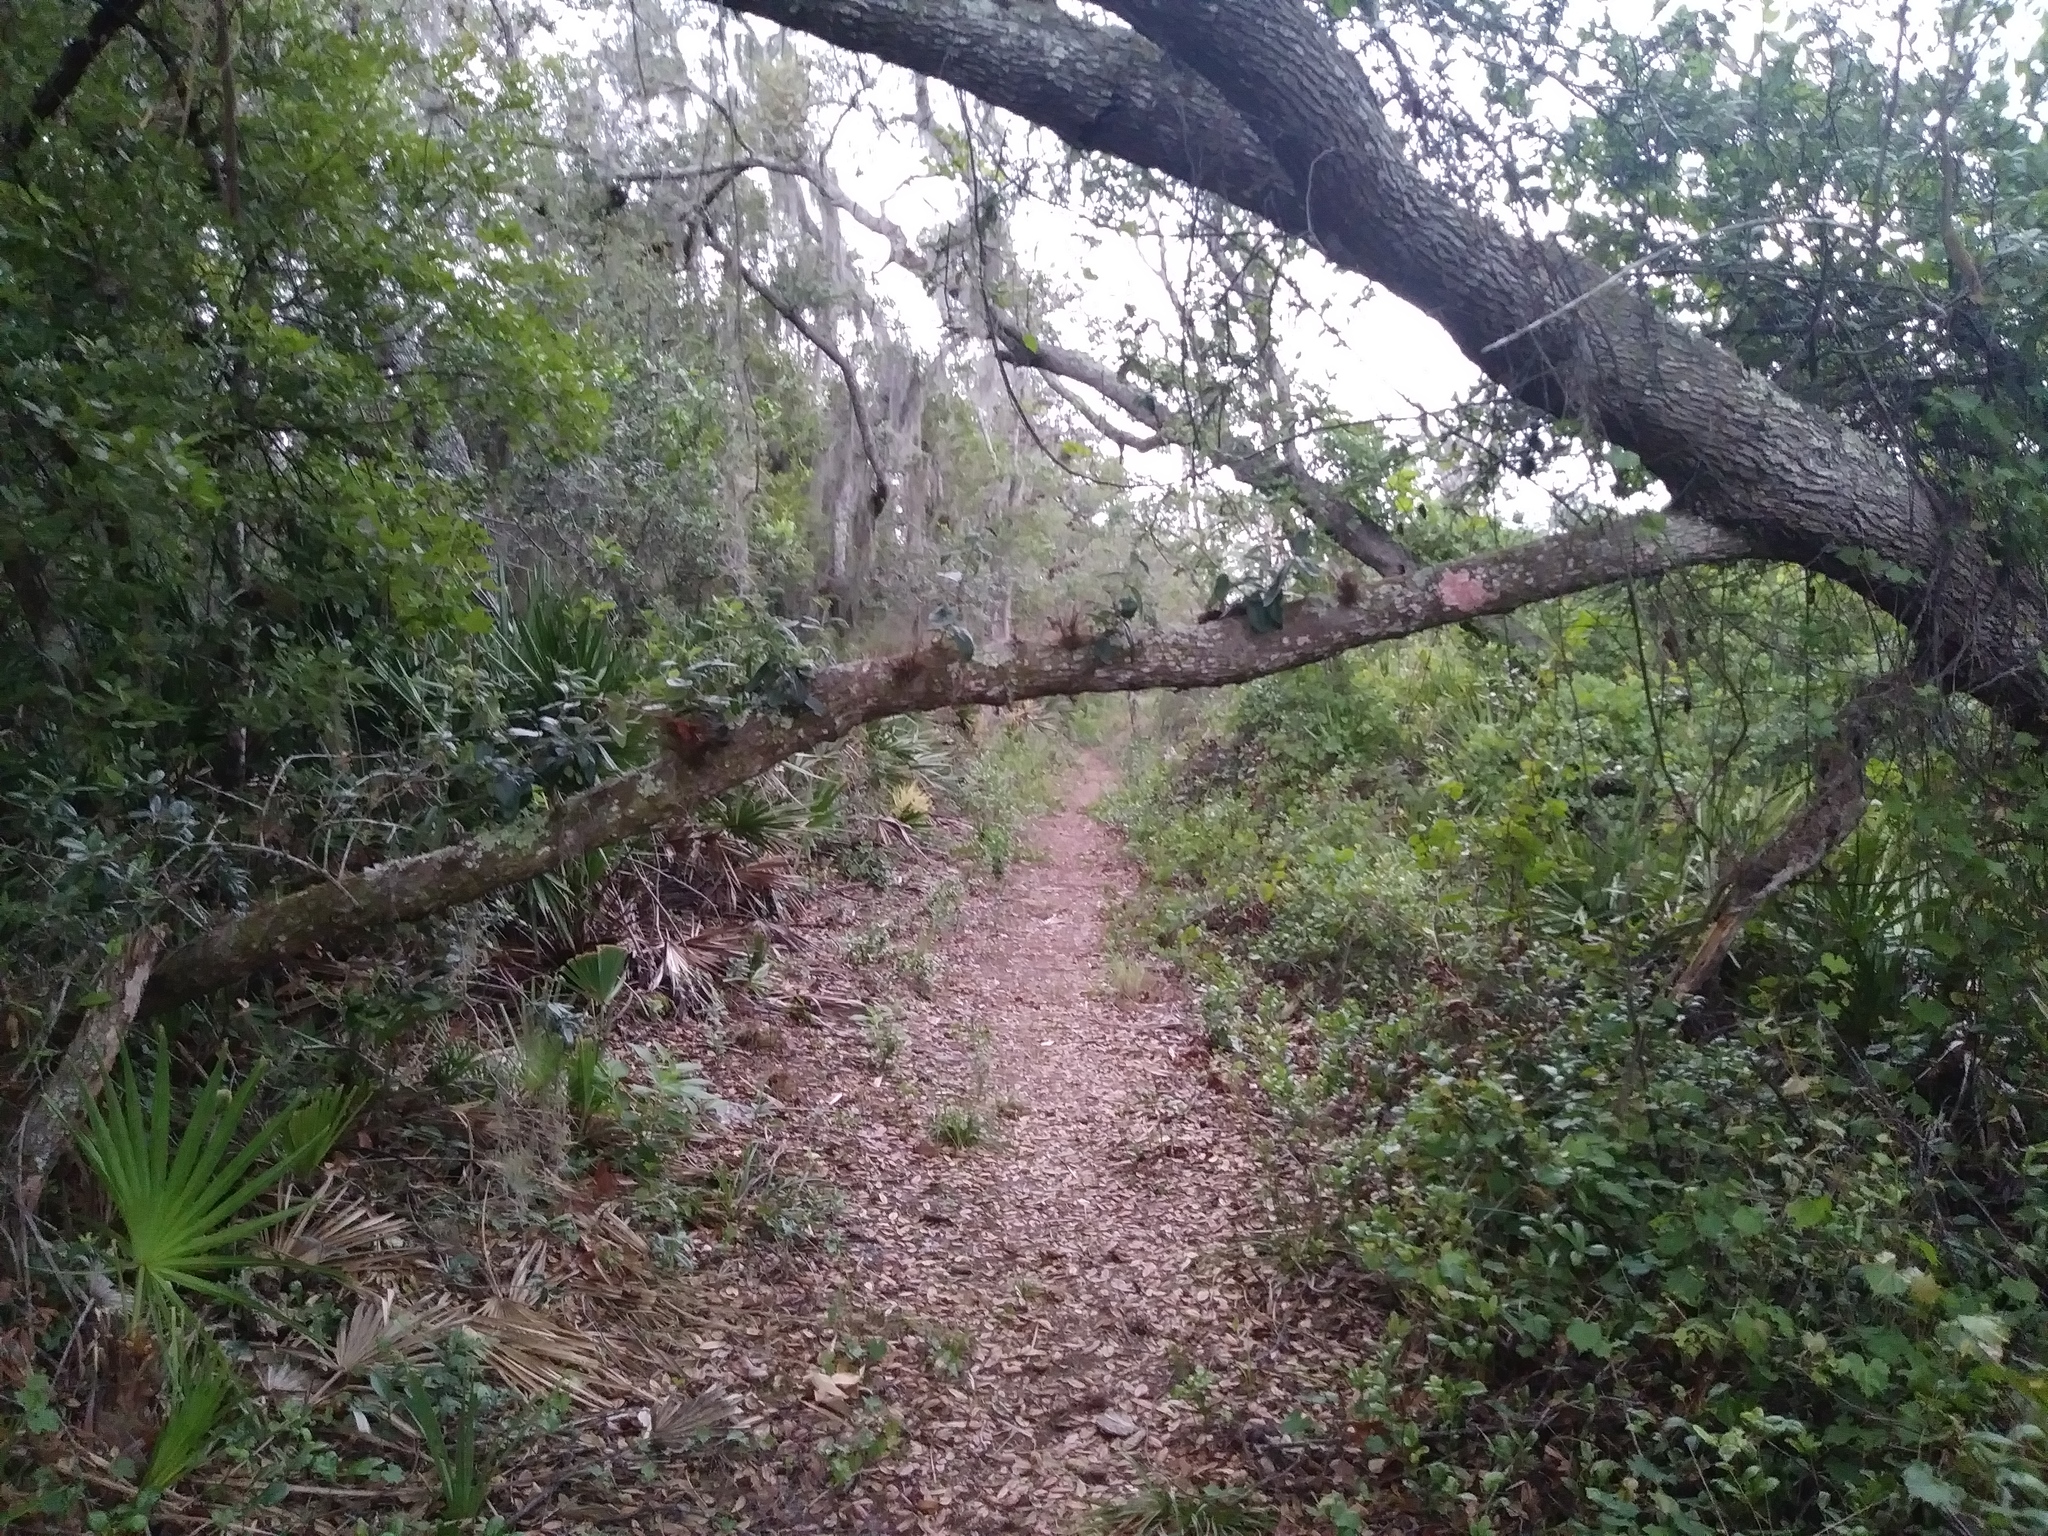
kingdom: Plantae
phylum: Tracheophyta
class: Liliopsida
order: Poales
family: Bromeliaceae
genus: Tillandsia
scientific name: Tillandsia usneoides
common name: Spanish moss
